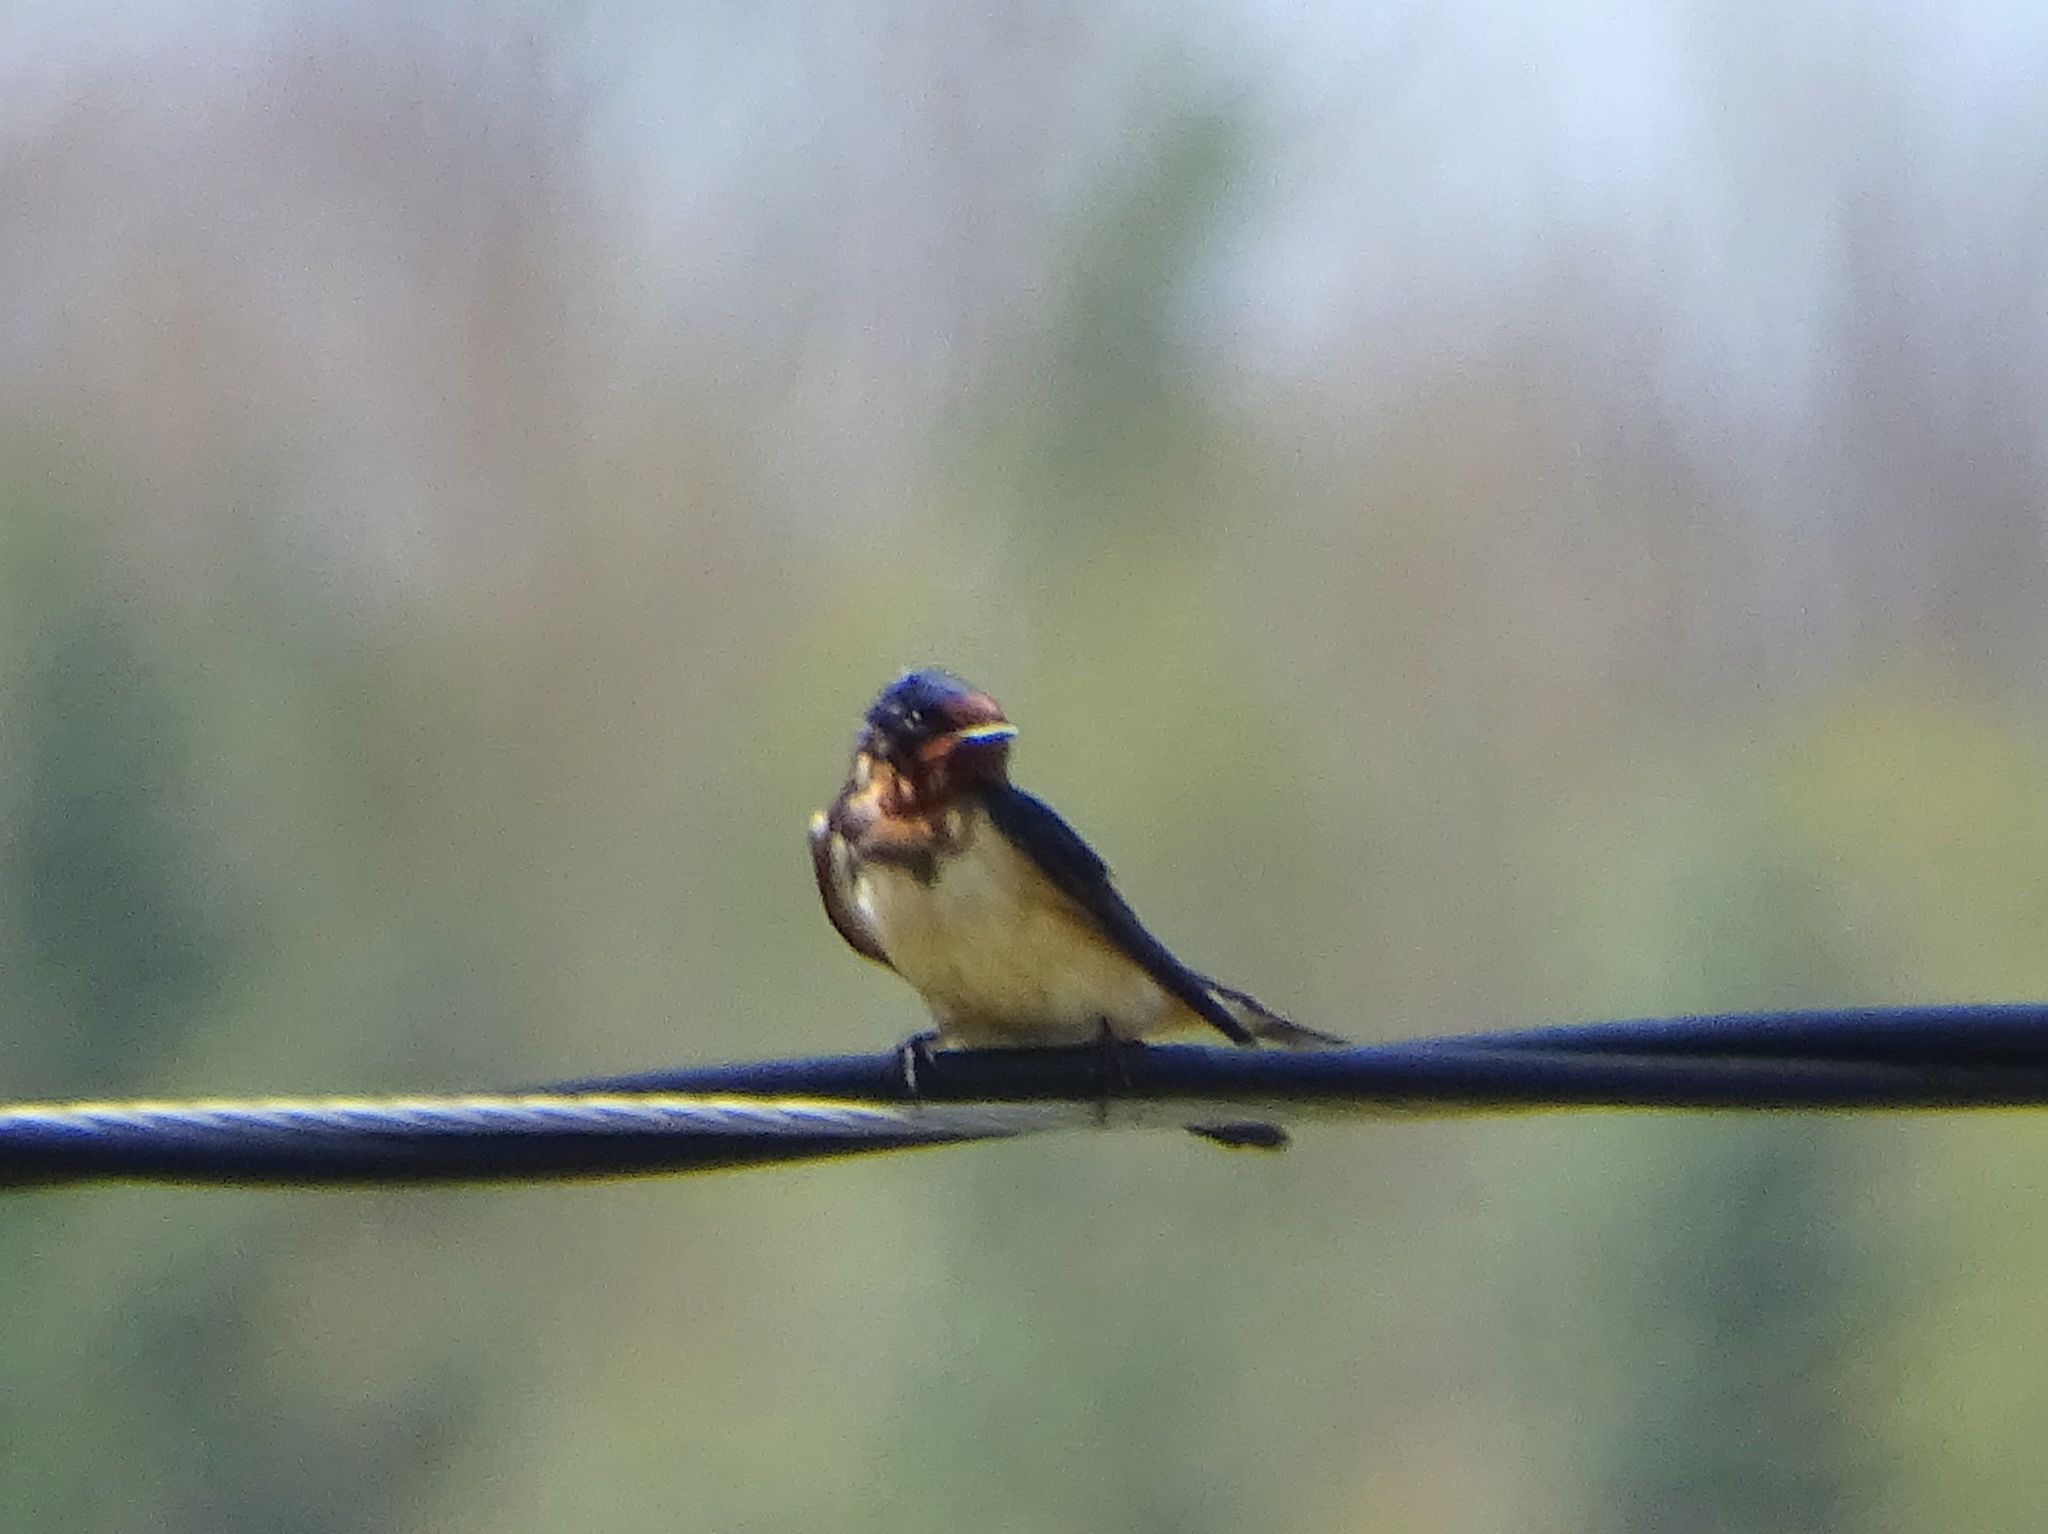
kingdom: Animalia
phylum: Chordata
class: Aves
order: Passeriformes
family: Hirundinidae
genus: Hirundo
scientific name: Hirundo rustica
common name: Barn swallow
